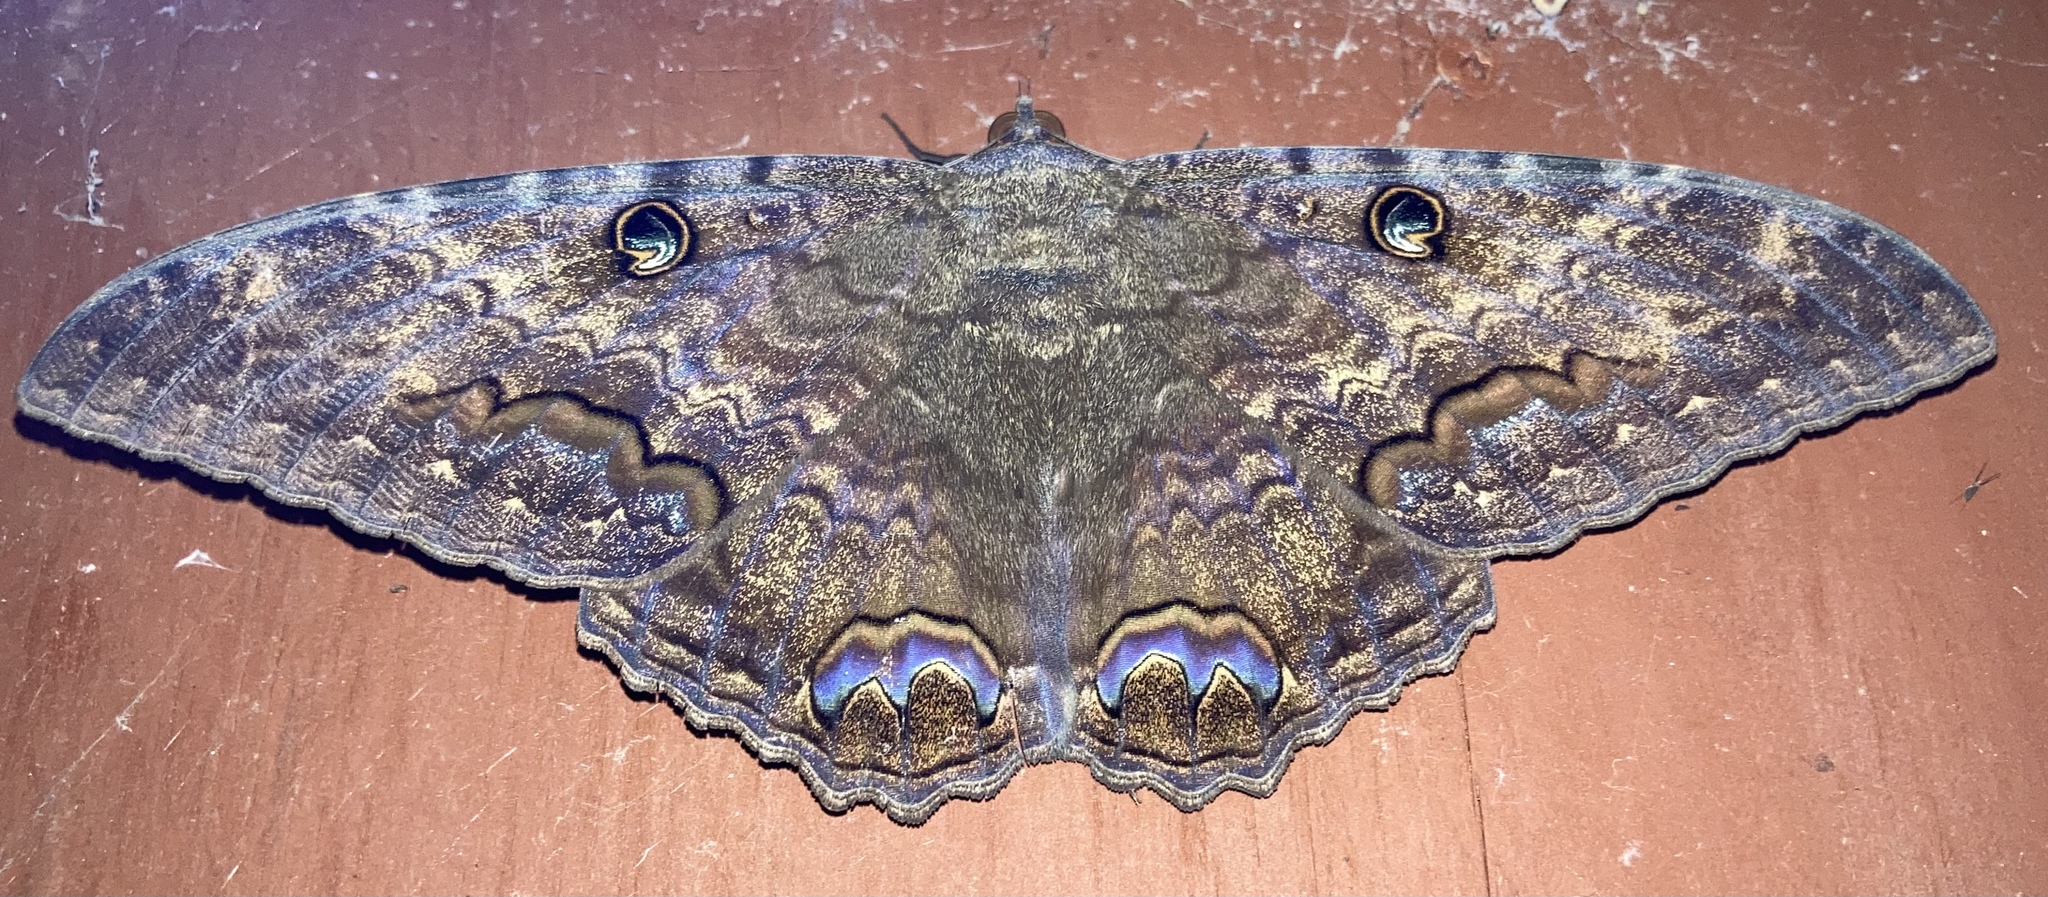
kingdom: Animalia
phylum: Arthropoda
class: Insecta
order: Lepidoptera
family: Erebidae
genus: Ascalapha
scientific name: Ascalapha odorata
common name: Black witch
